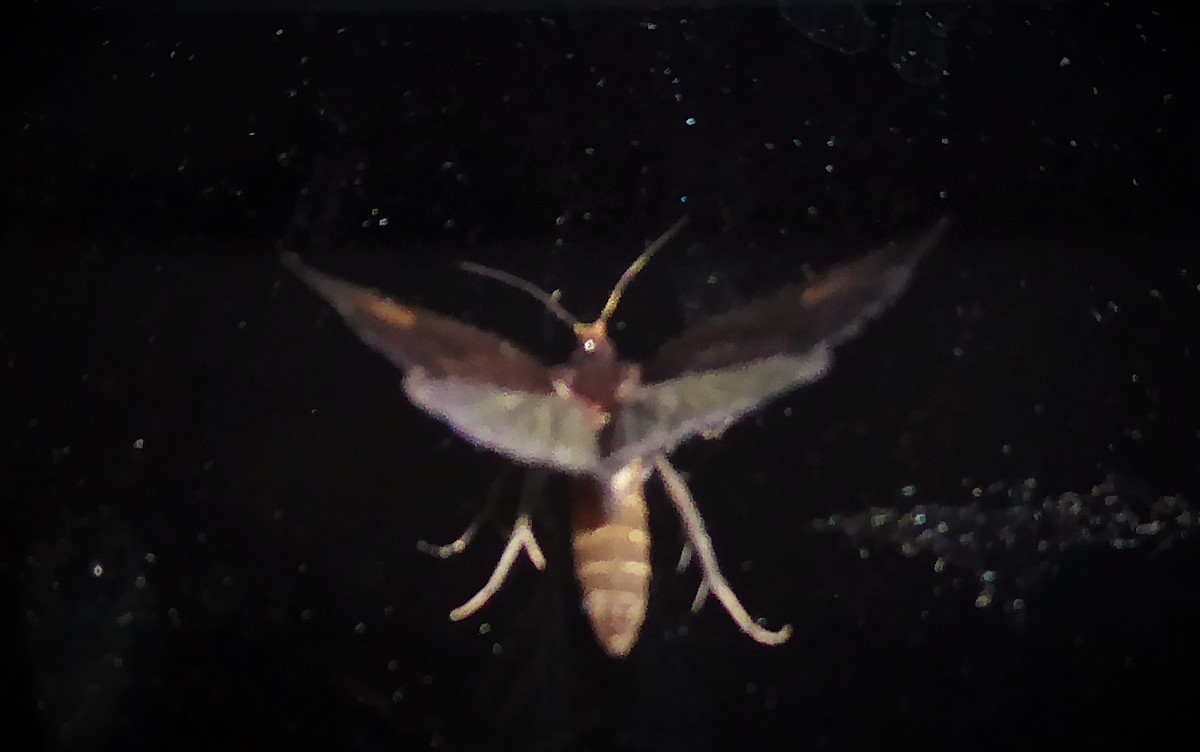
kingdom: Animalia
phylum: Arthropoda
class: Insecta
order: Lepidoptera
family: Tortricidae
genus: Cryptaspasma
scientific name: Cryptaspasma querula
